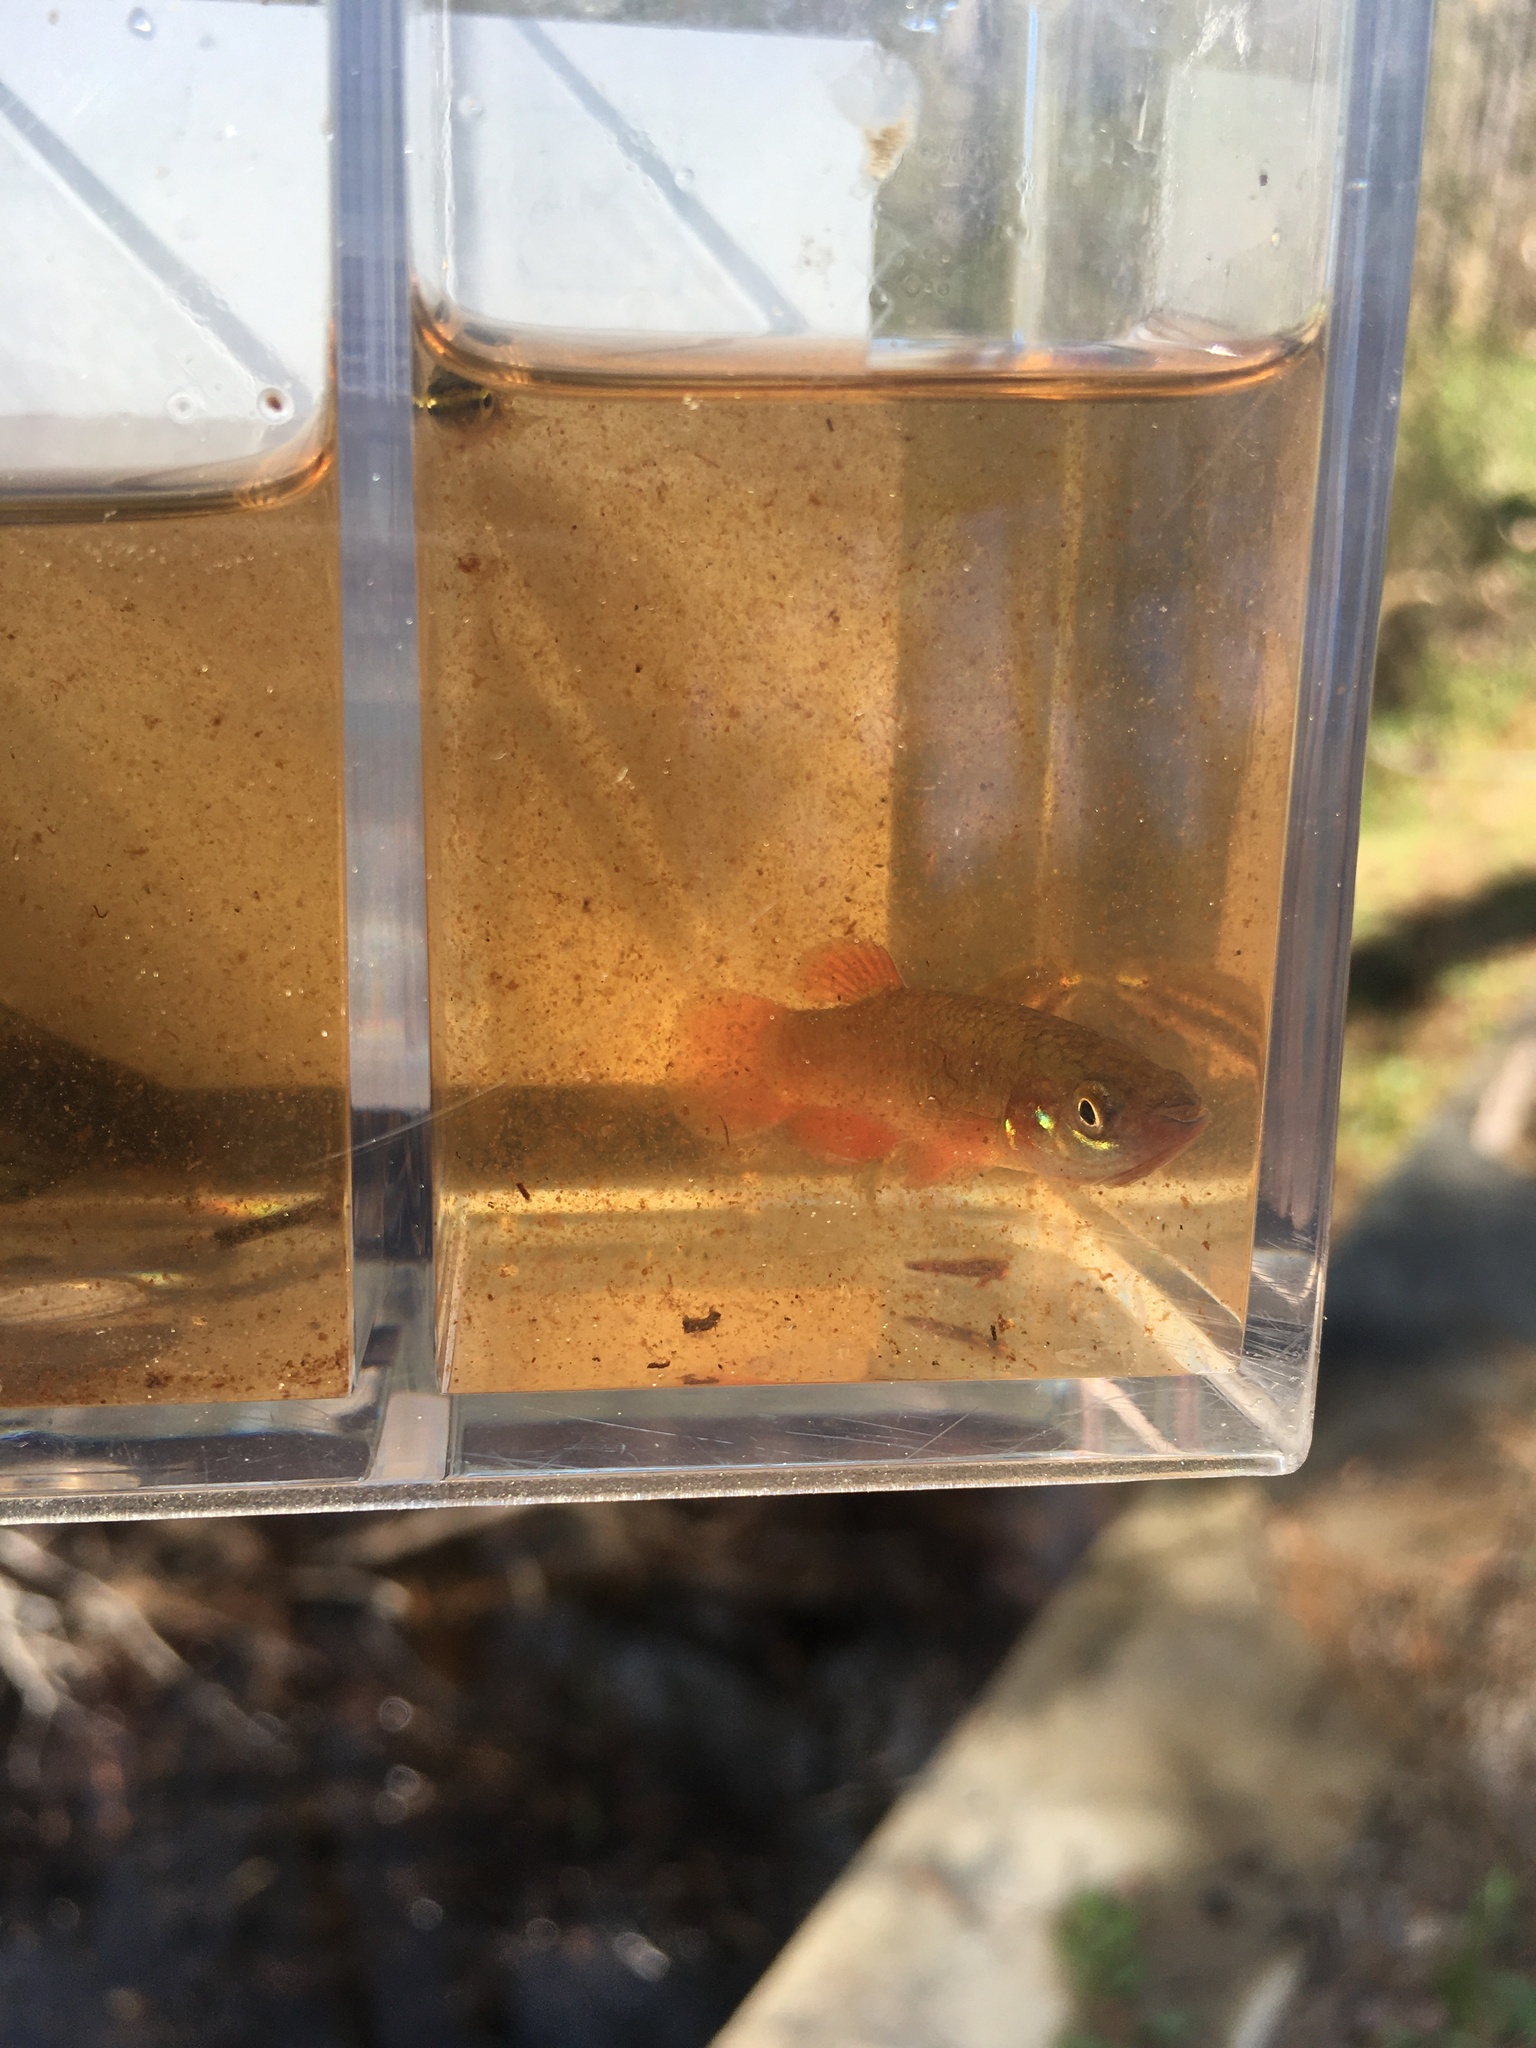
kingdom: Animalia
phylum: Chordata
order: Cyprinodontiformes
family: Fundulidae
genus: Fundulus
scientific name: Fundulus cingulatus
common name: Banded topminnow
